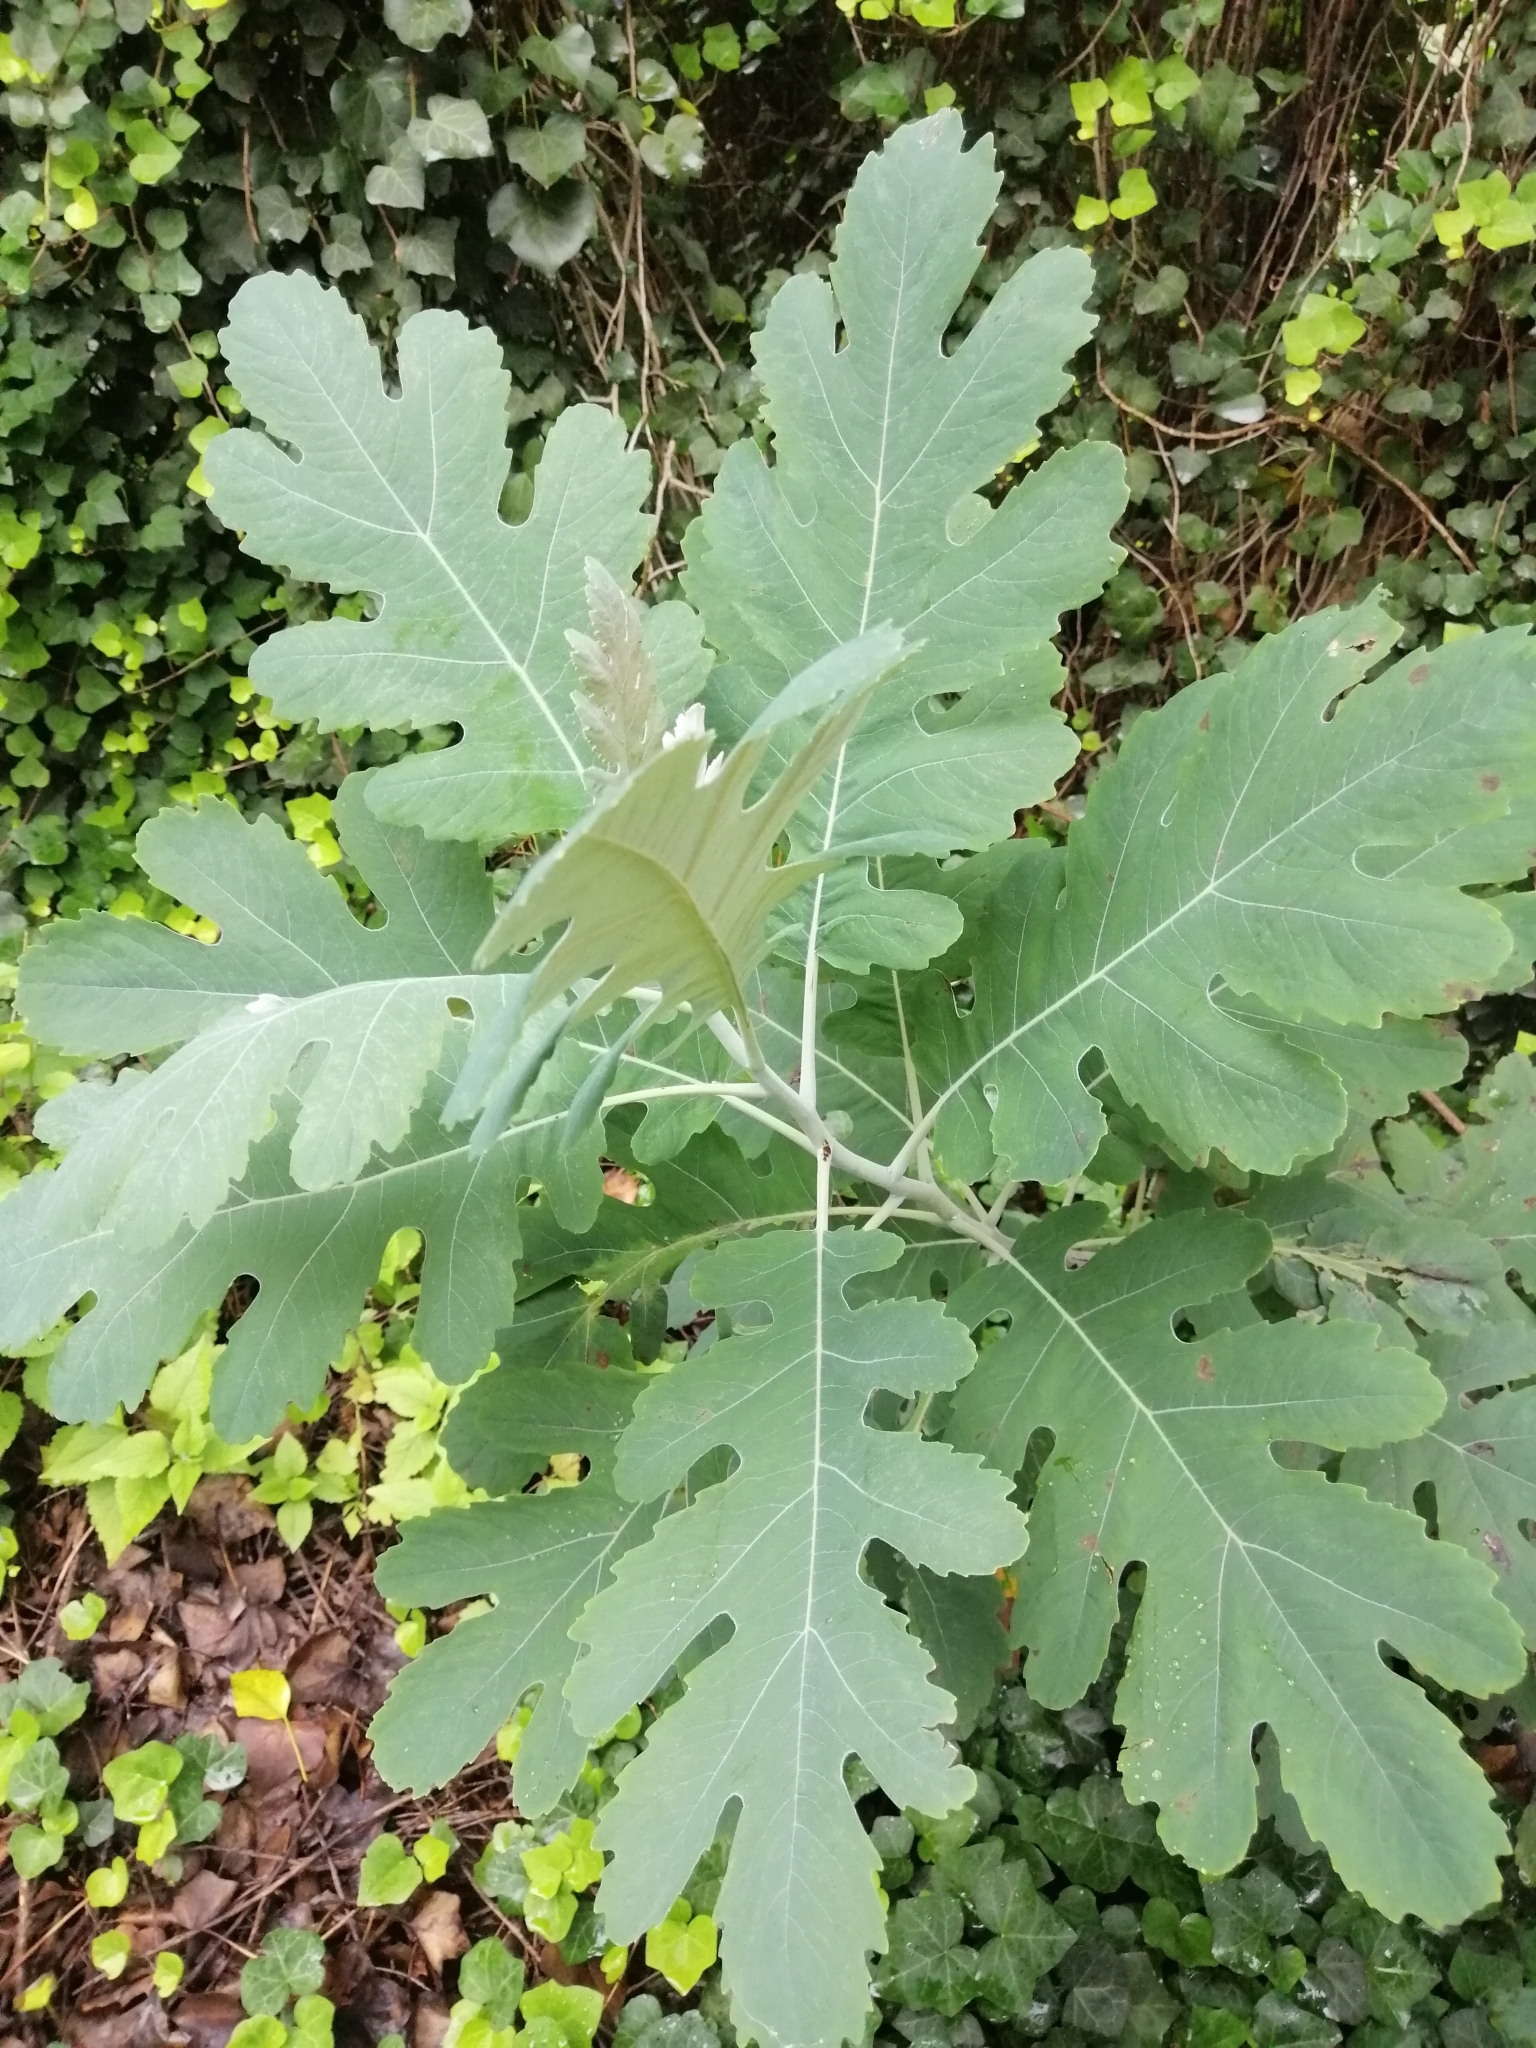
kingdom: Plantae
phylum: Tracheophyta
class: Magnoliopsida
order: Ranunculales
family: Papaveraceae
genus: Bocconia
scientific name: Bocconia frutescens
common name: Tree poppy
